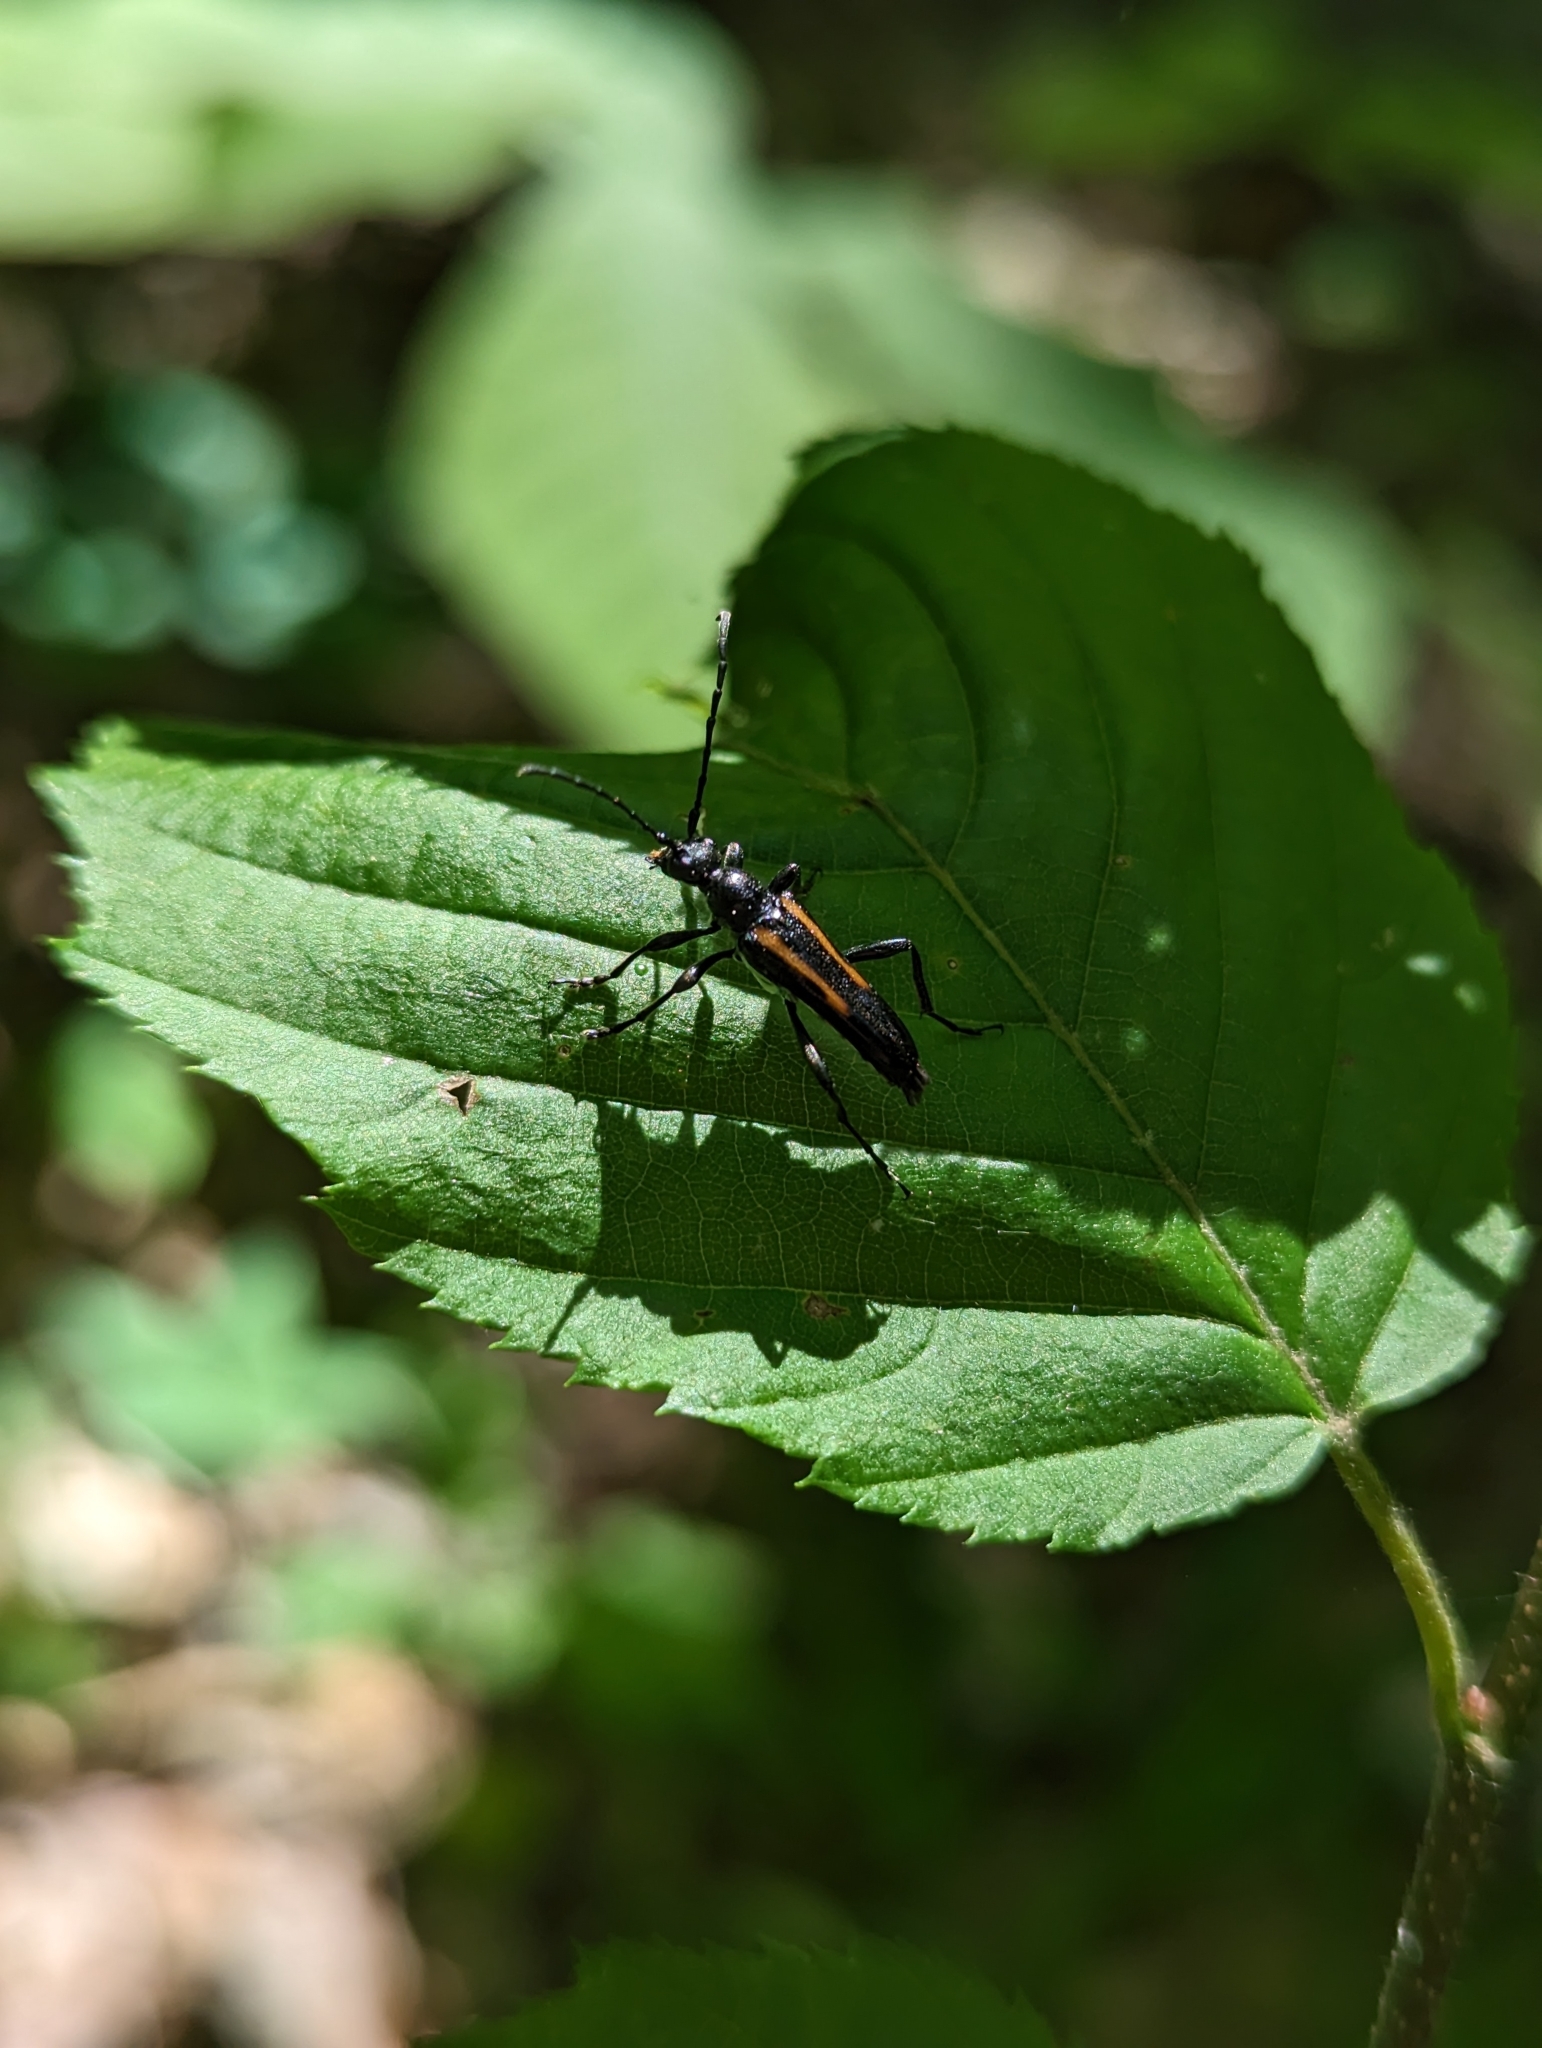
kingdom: Animalia
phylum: Arthropoda
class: Insecta
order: Coleoptera
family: Cerambycidae
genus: Strangalepta
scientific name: Strangalepta abbreviata
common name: Strangalepta flower longhorn beetle
